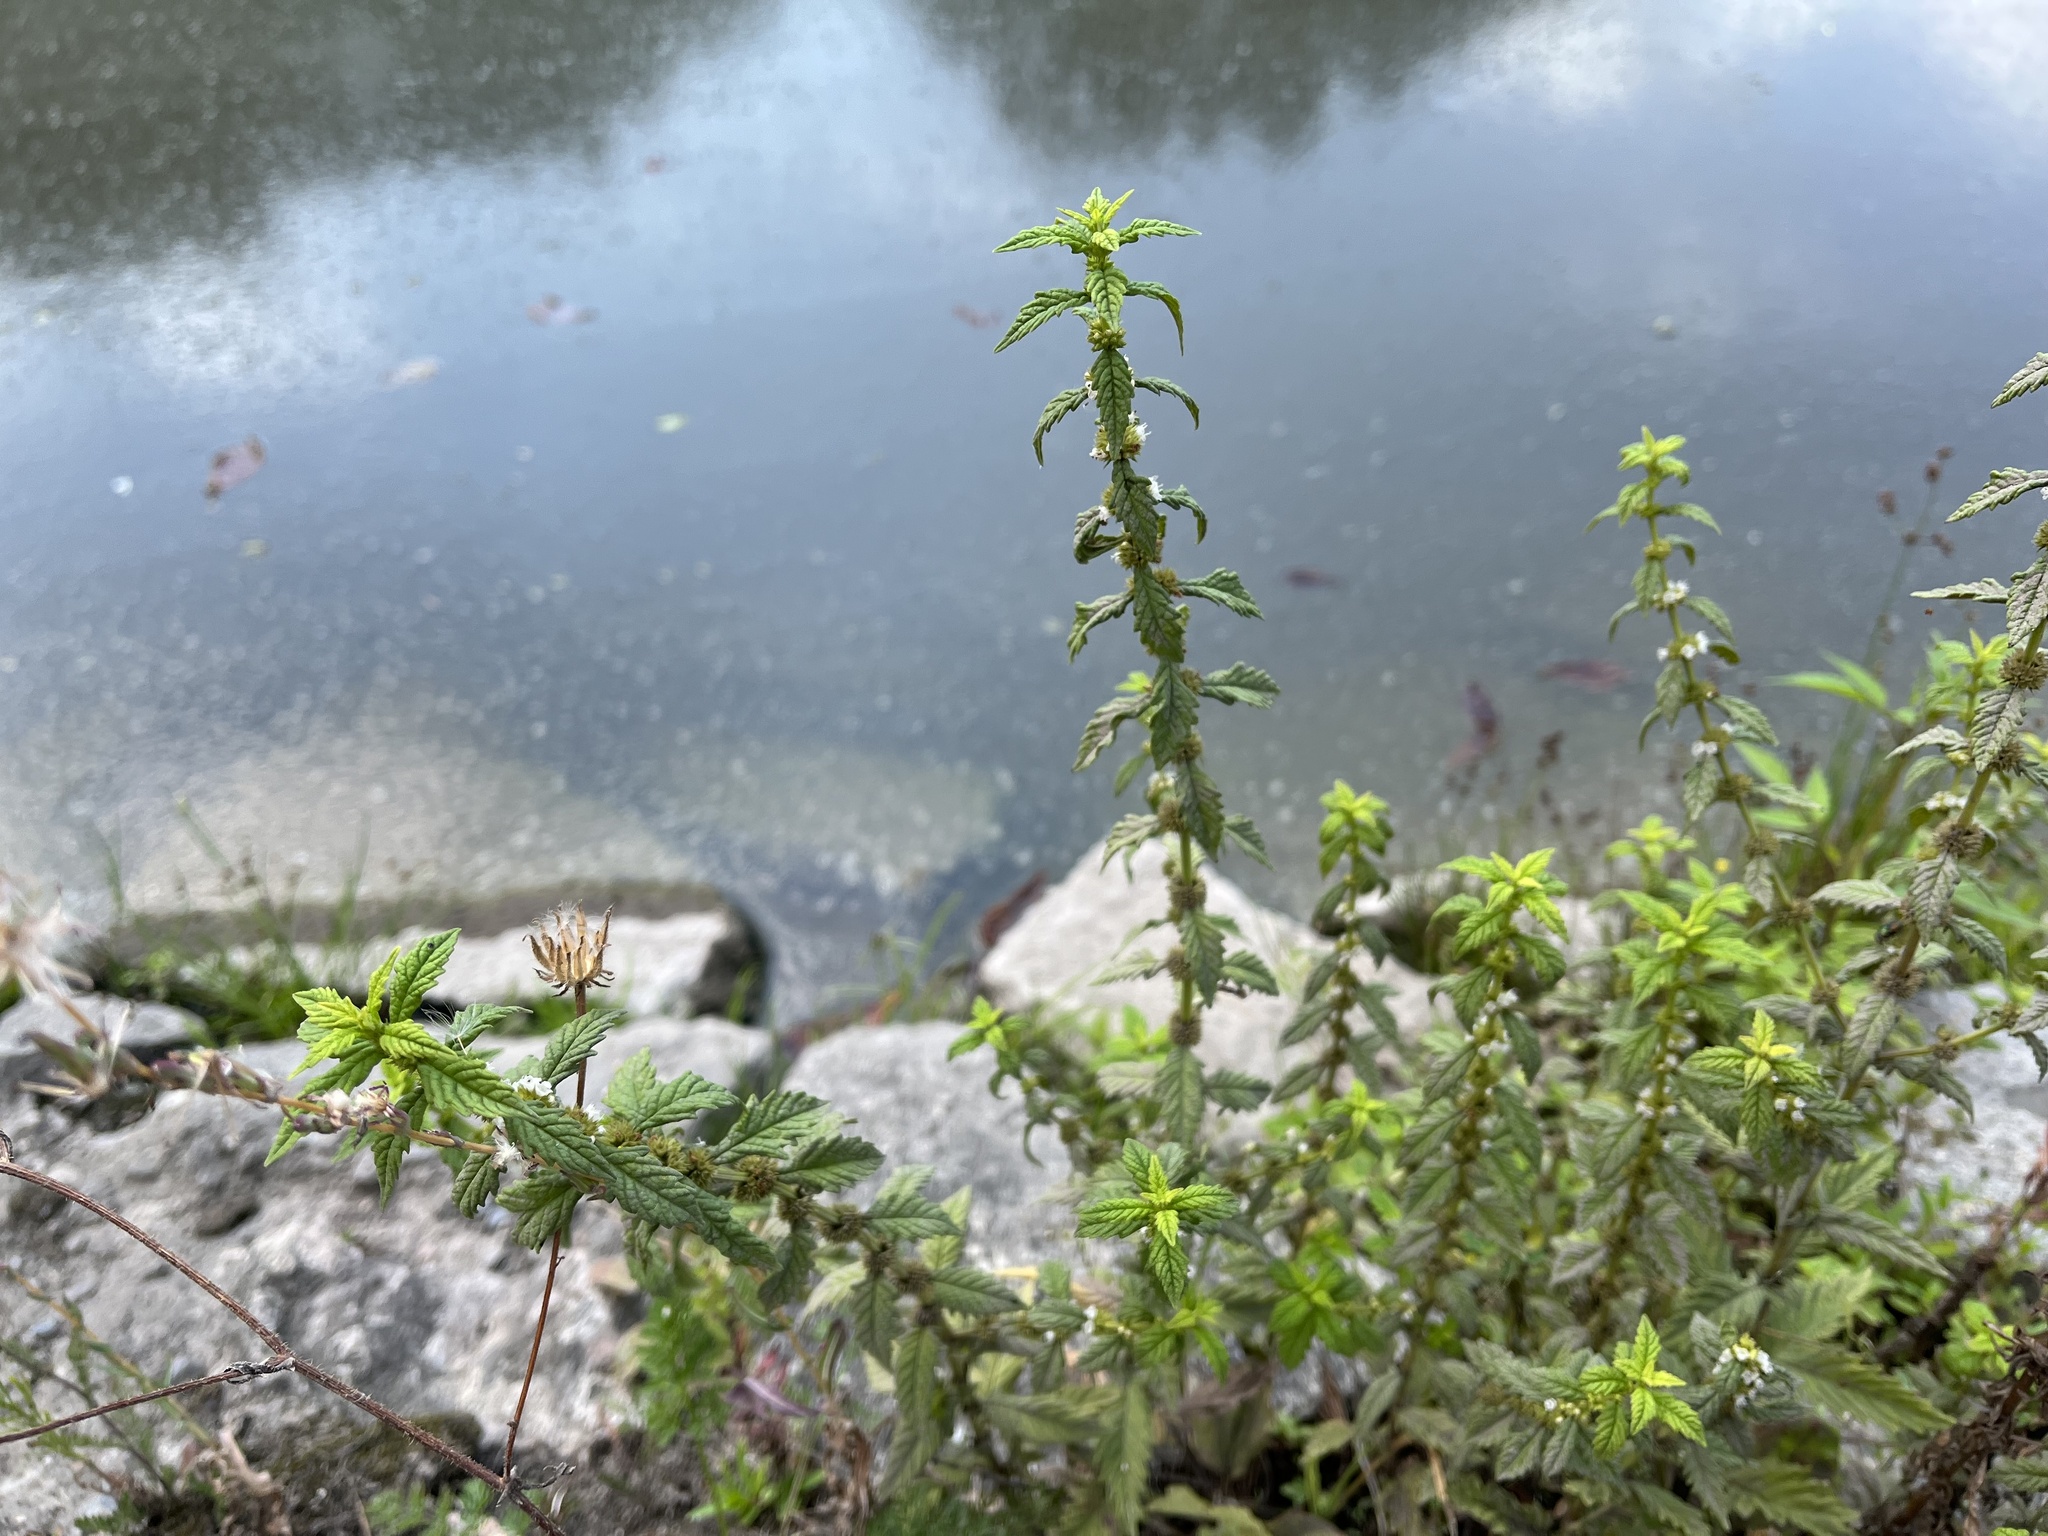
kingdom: Plantae
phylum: Tracheophyta
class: Magnoliopsida
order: Lamiales
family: Lamiaceae
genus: Lycopus
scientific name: Lycopus europaeus
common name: European bugleweed
